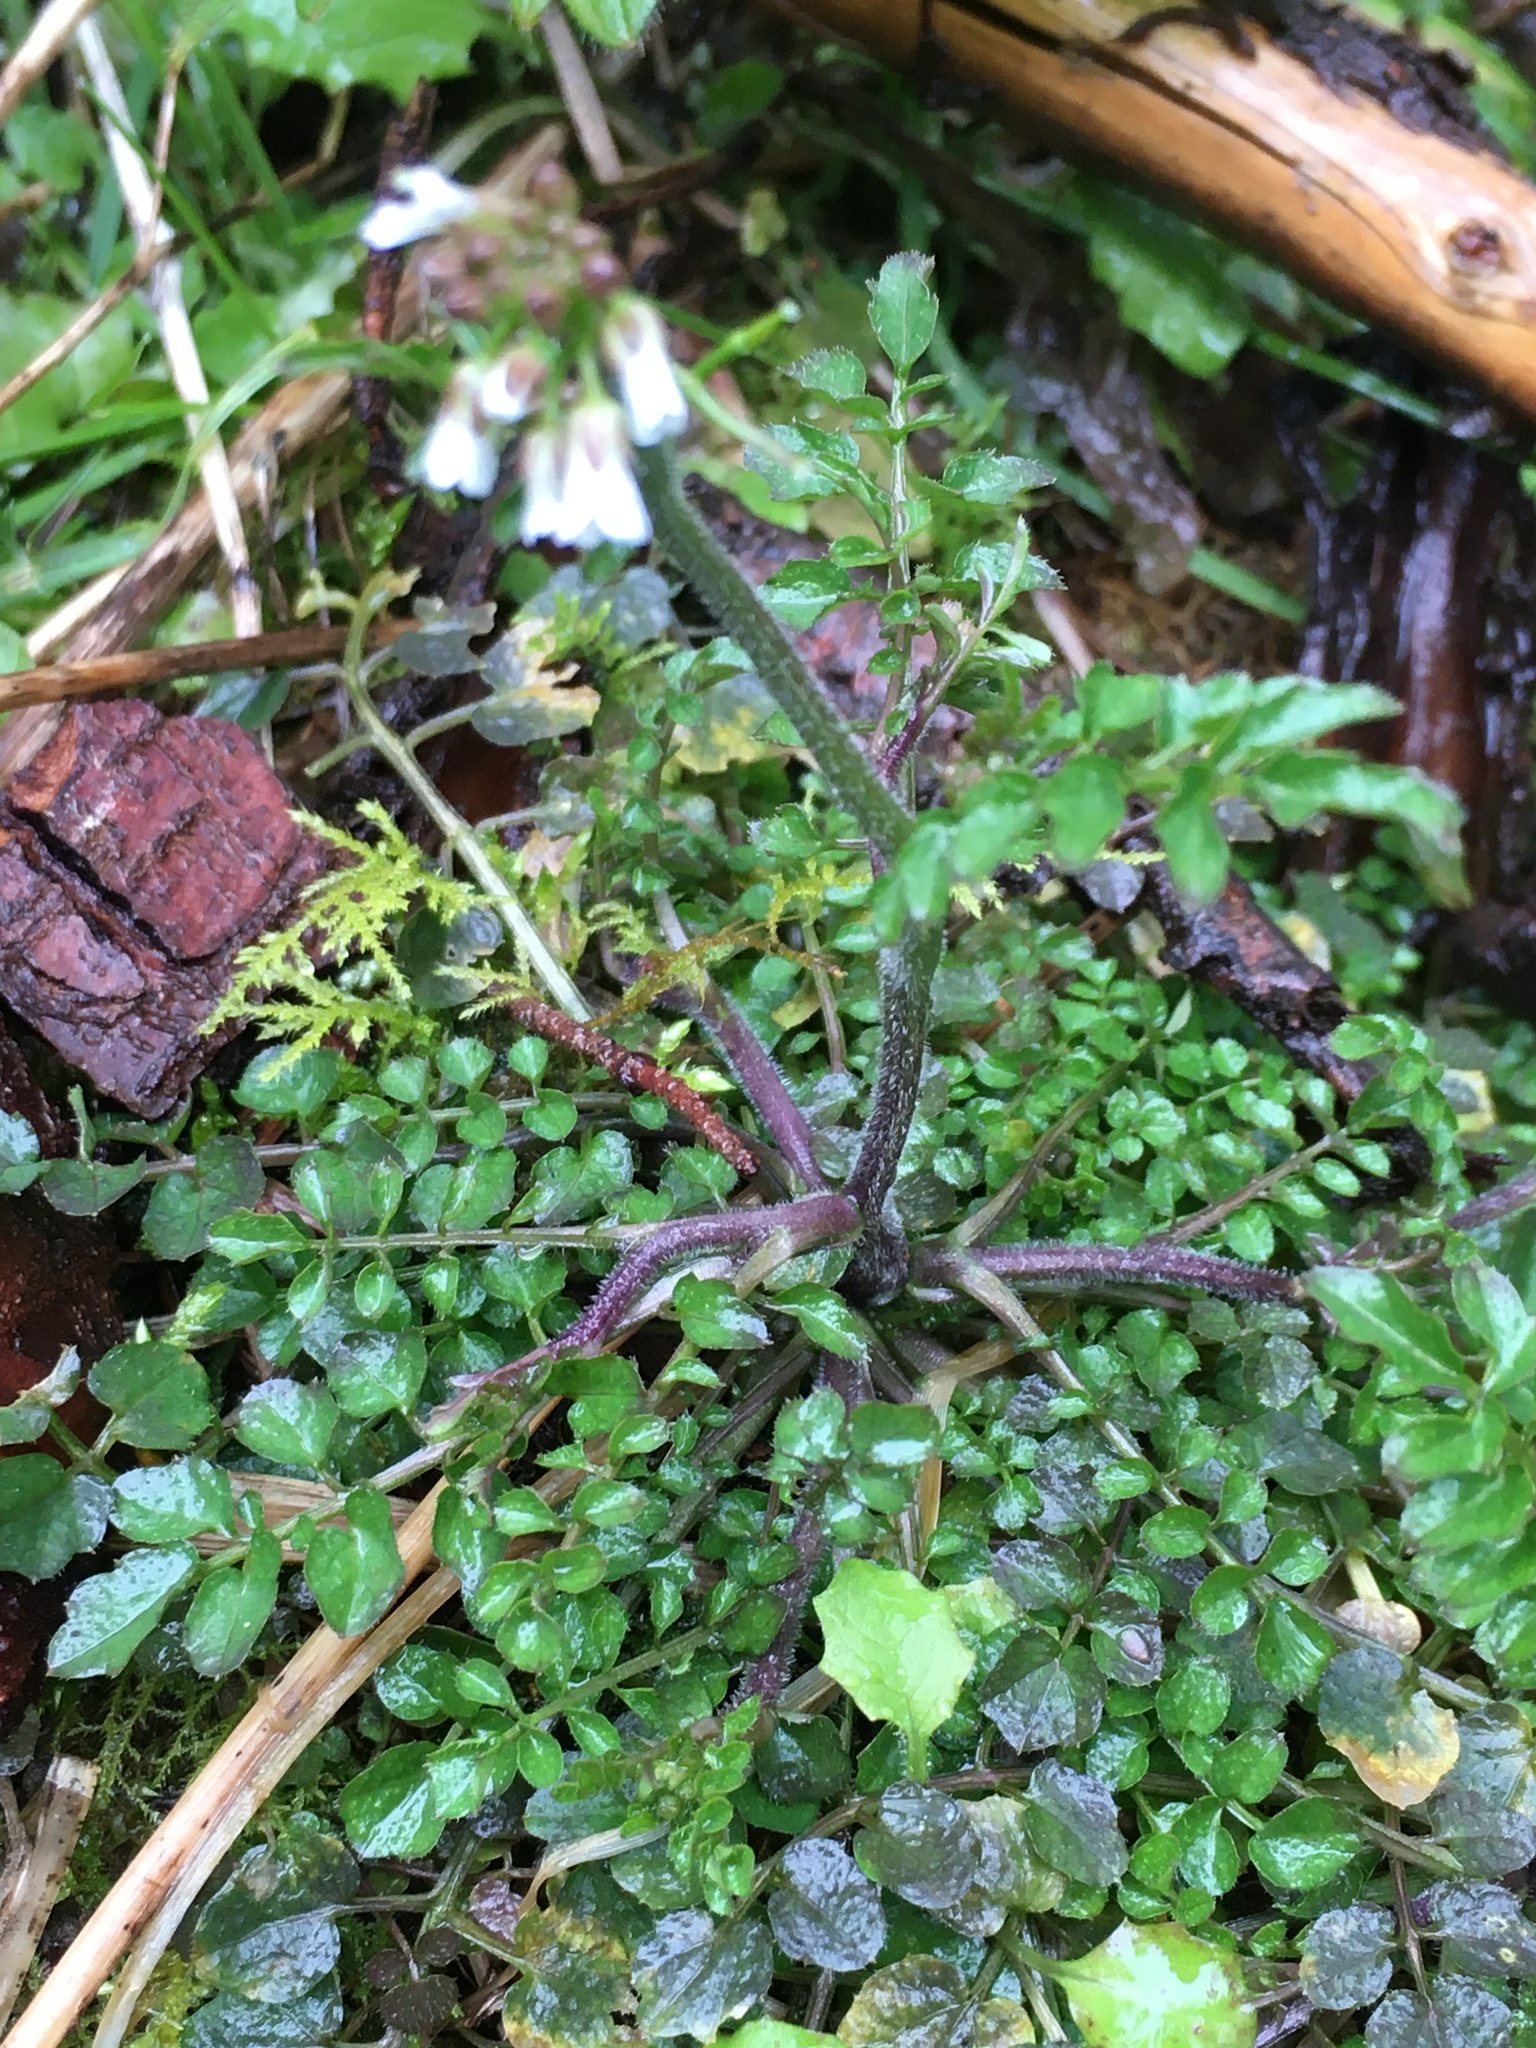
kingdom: Plantae
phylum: Tracheophyta
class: Magnoliopsida
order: Brassicales
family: Brassicaceae
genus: Cardamine
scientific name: Cardamine flexuosa
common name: Woodland bittercress
